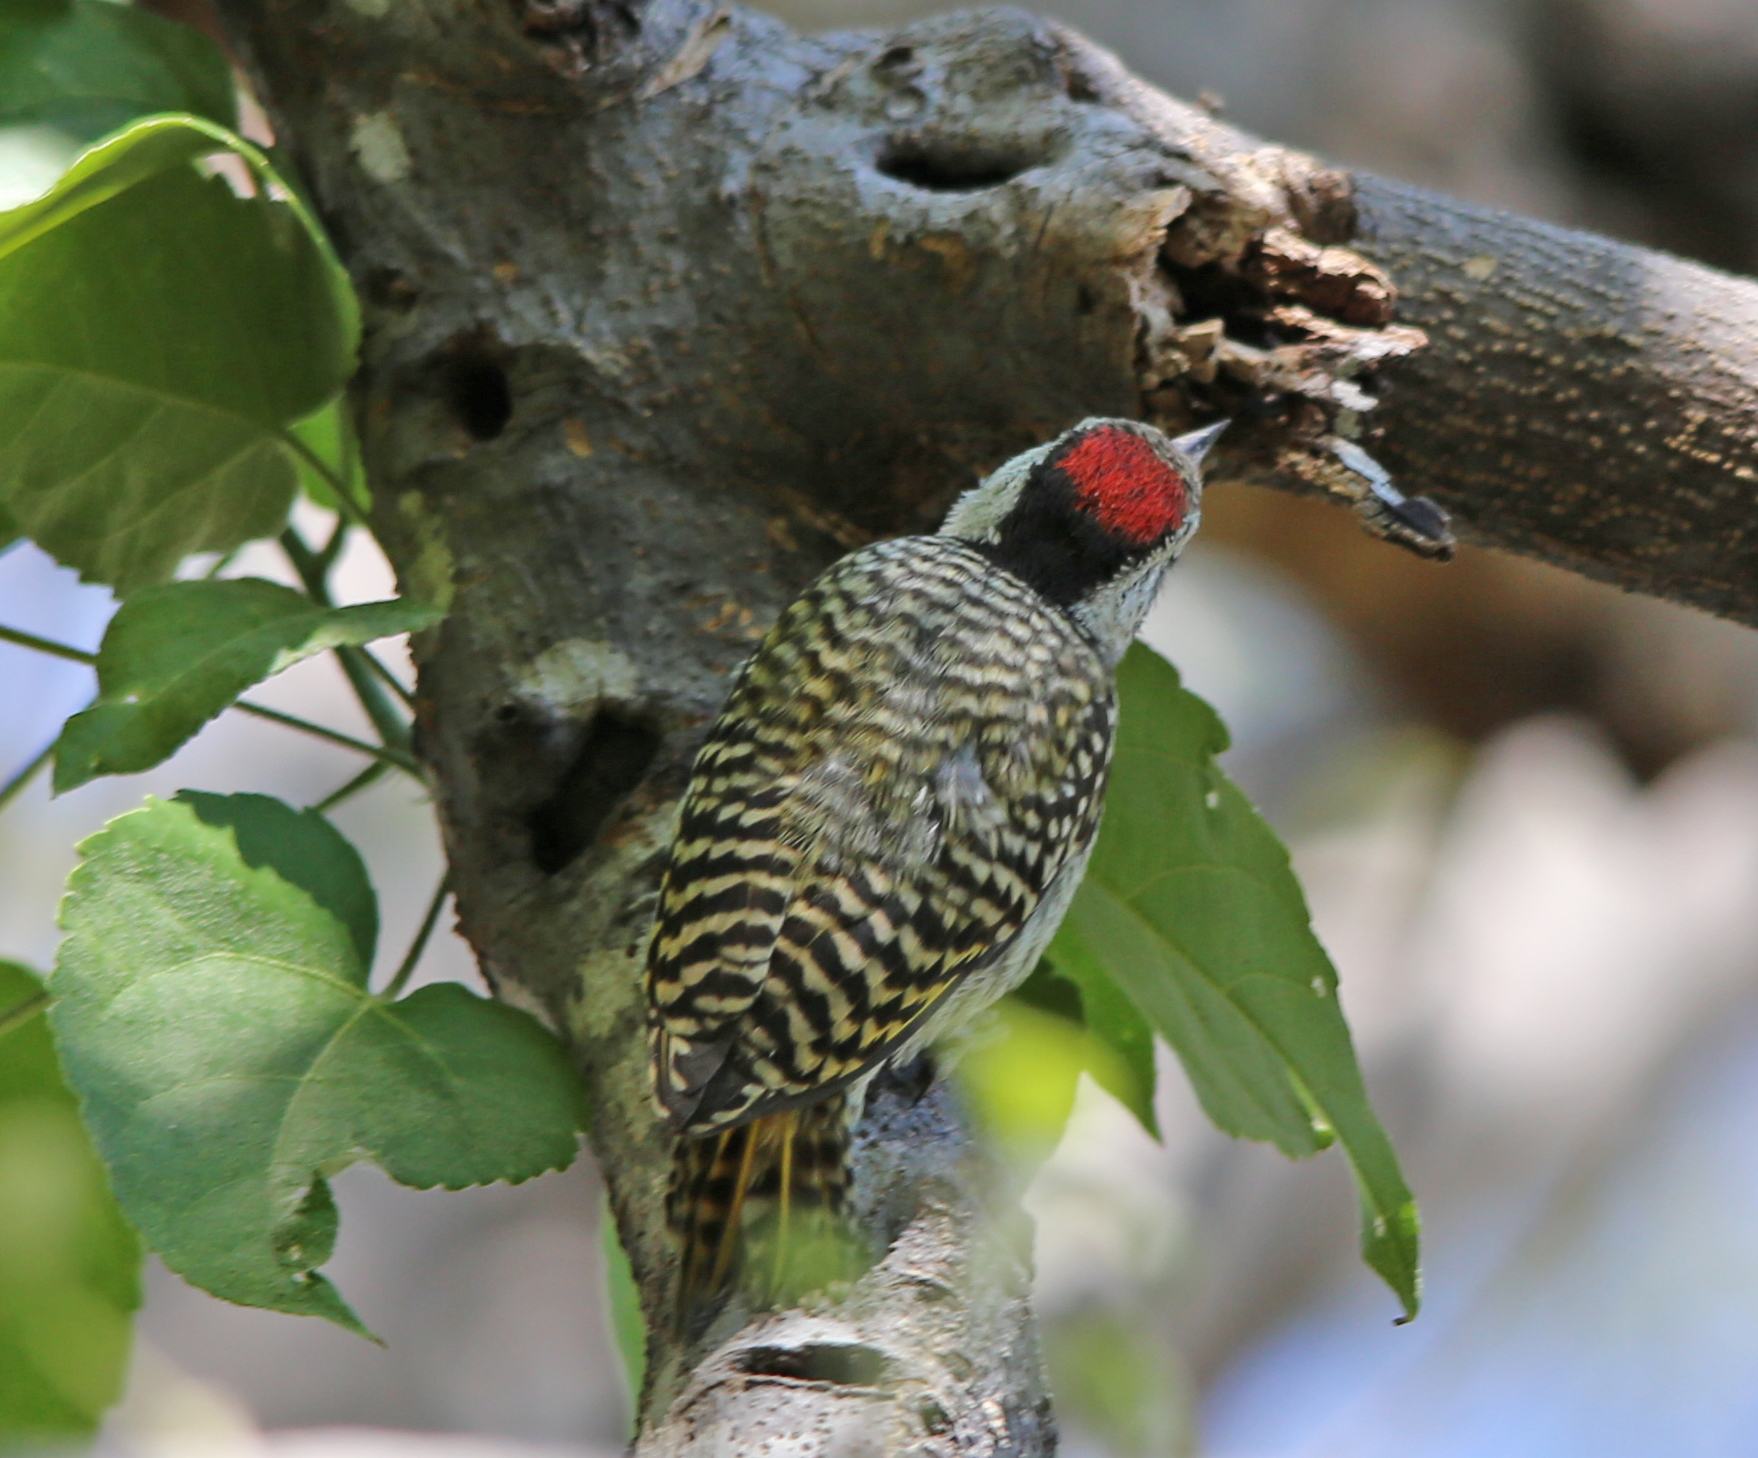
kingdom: Animalia
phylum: Chordata
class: Aves
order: Piciformes
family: Picidae
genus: Dendropicos
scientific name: Dendropicos fuscescens
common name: Cardinal woodpecker
